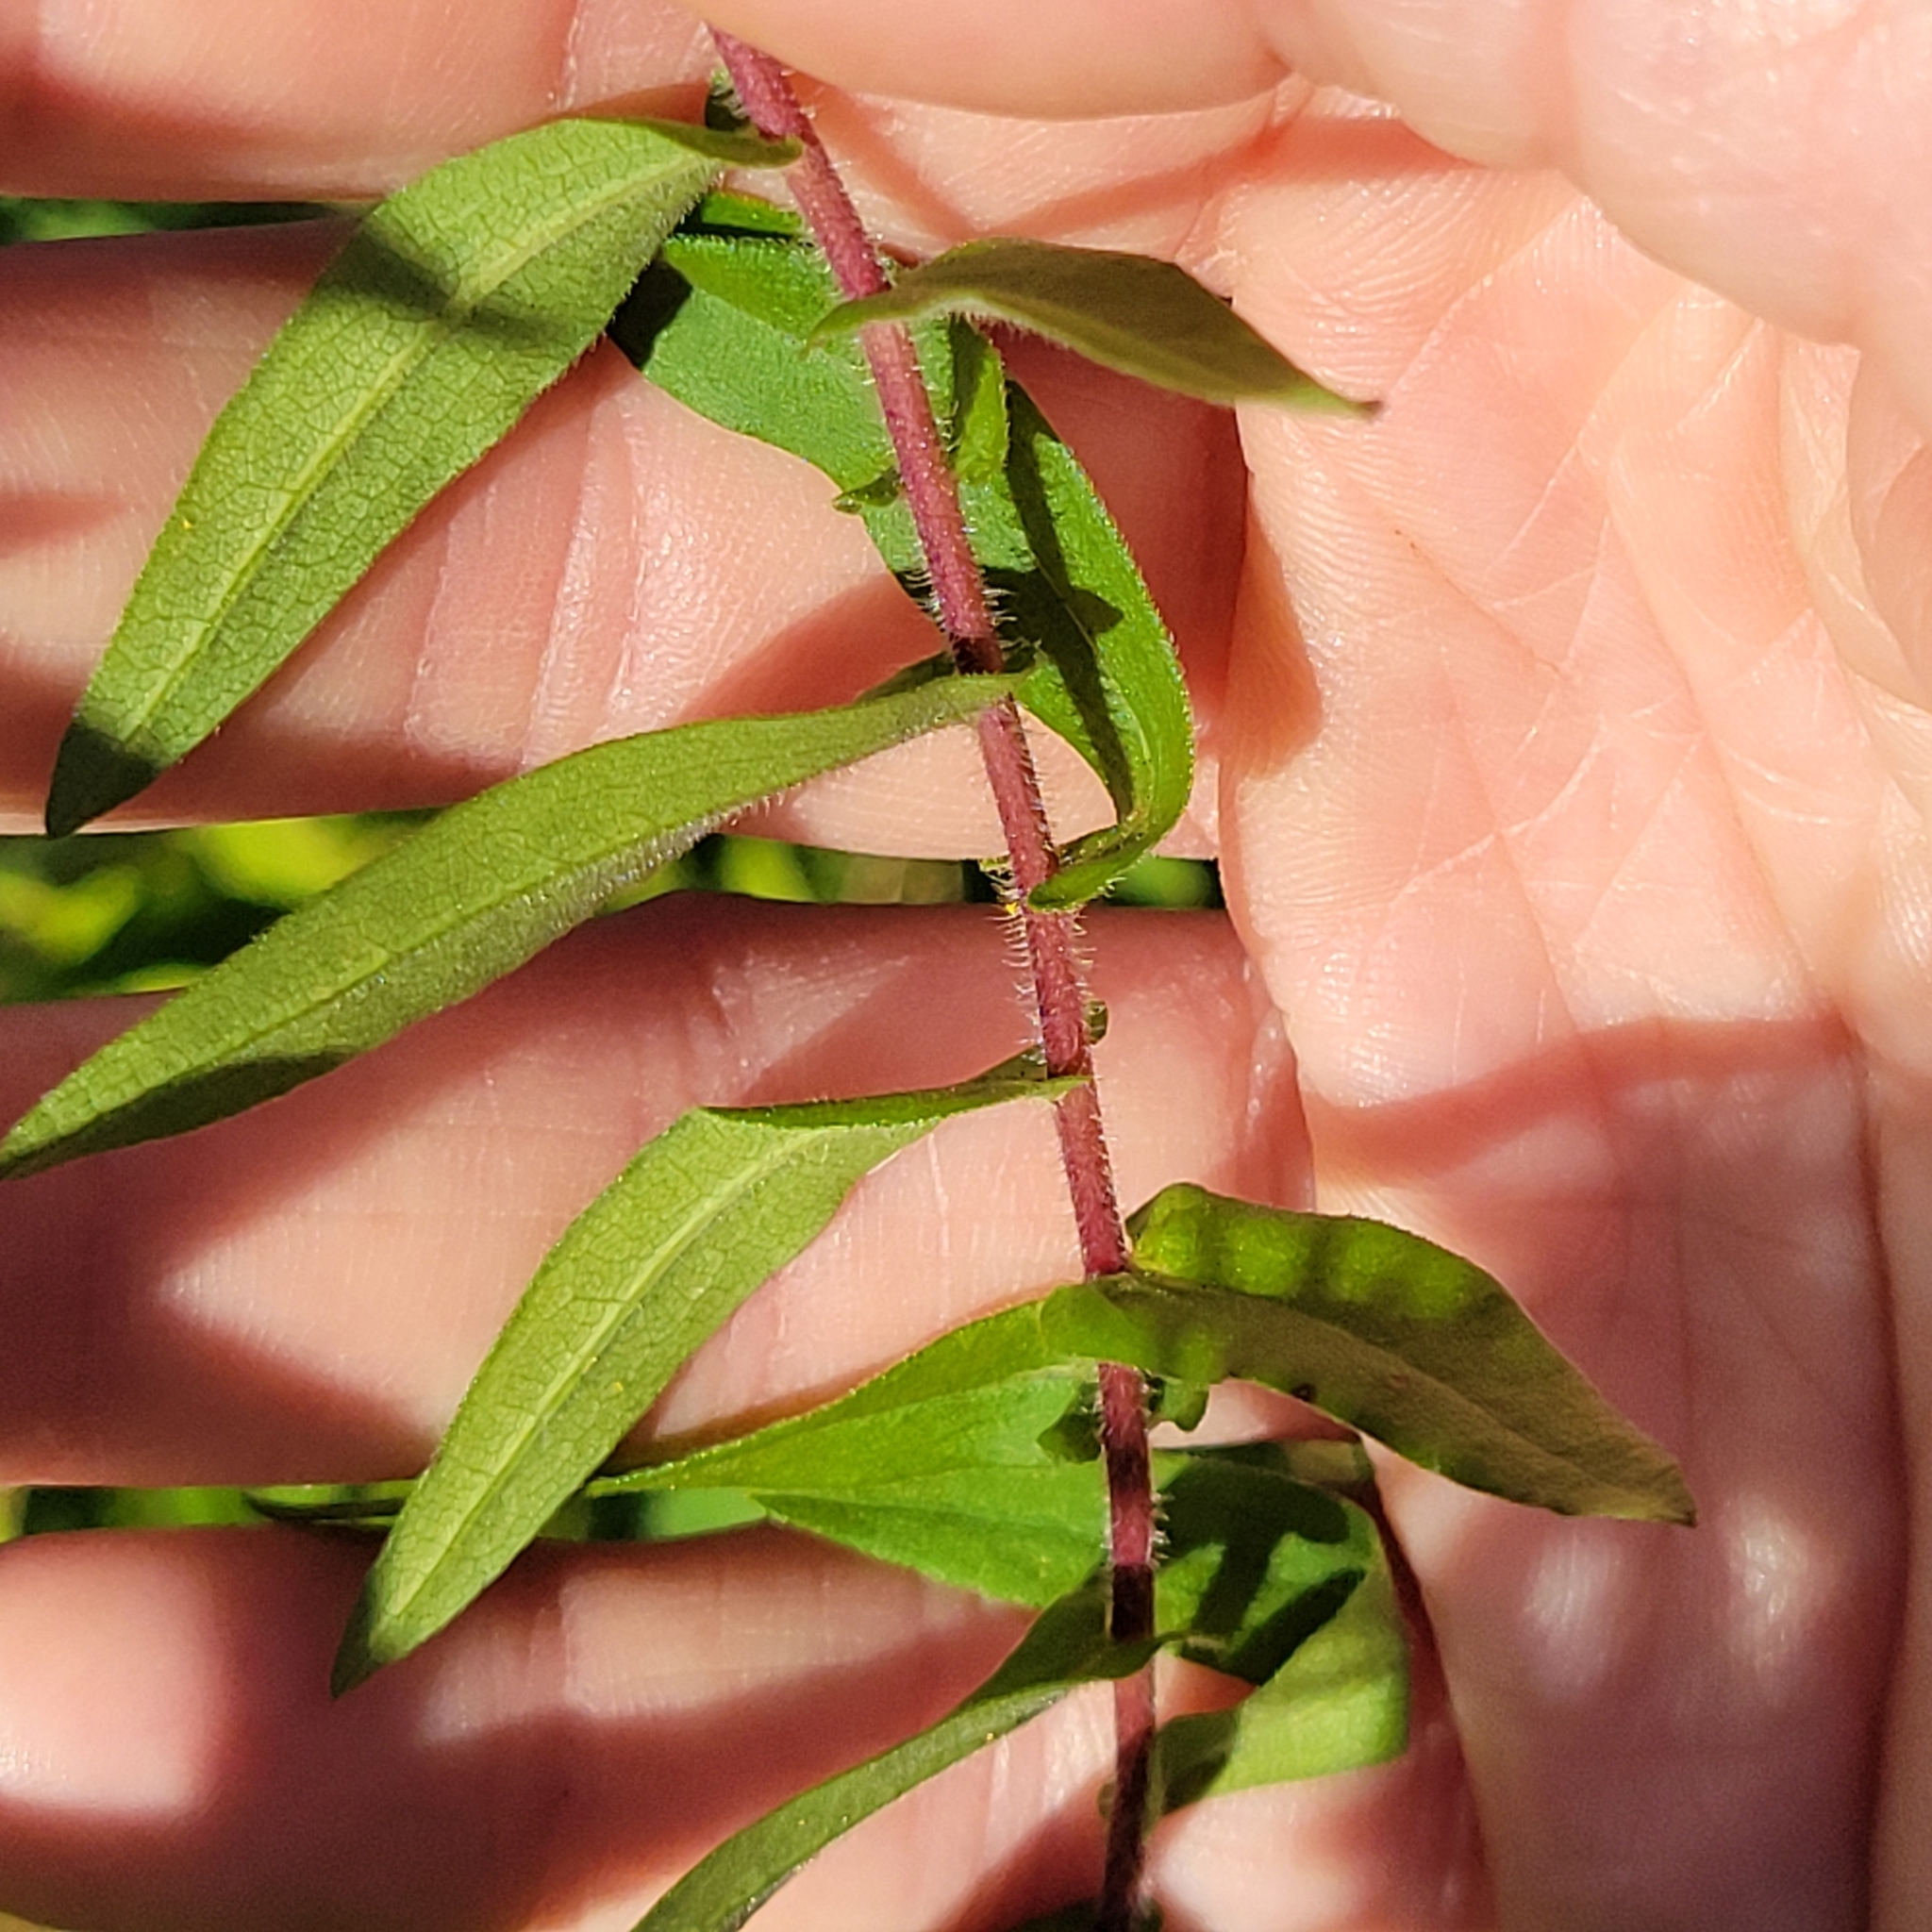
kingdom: Plantae
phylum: Tracheophyta
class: Magnoliopsida
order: Asterales
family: Asteraceae
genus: Symphyotrichum
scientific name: Symphyotrichum novae-angliae
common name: Michaelmas daisy
